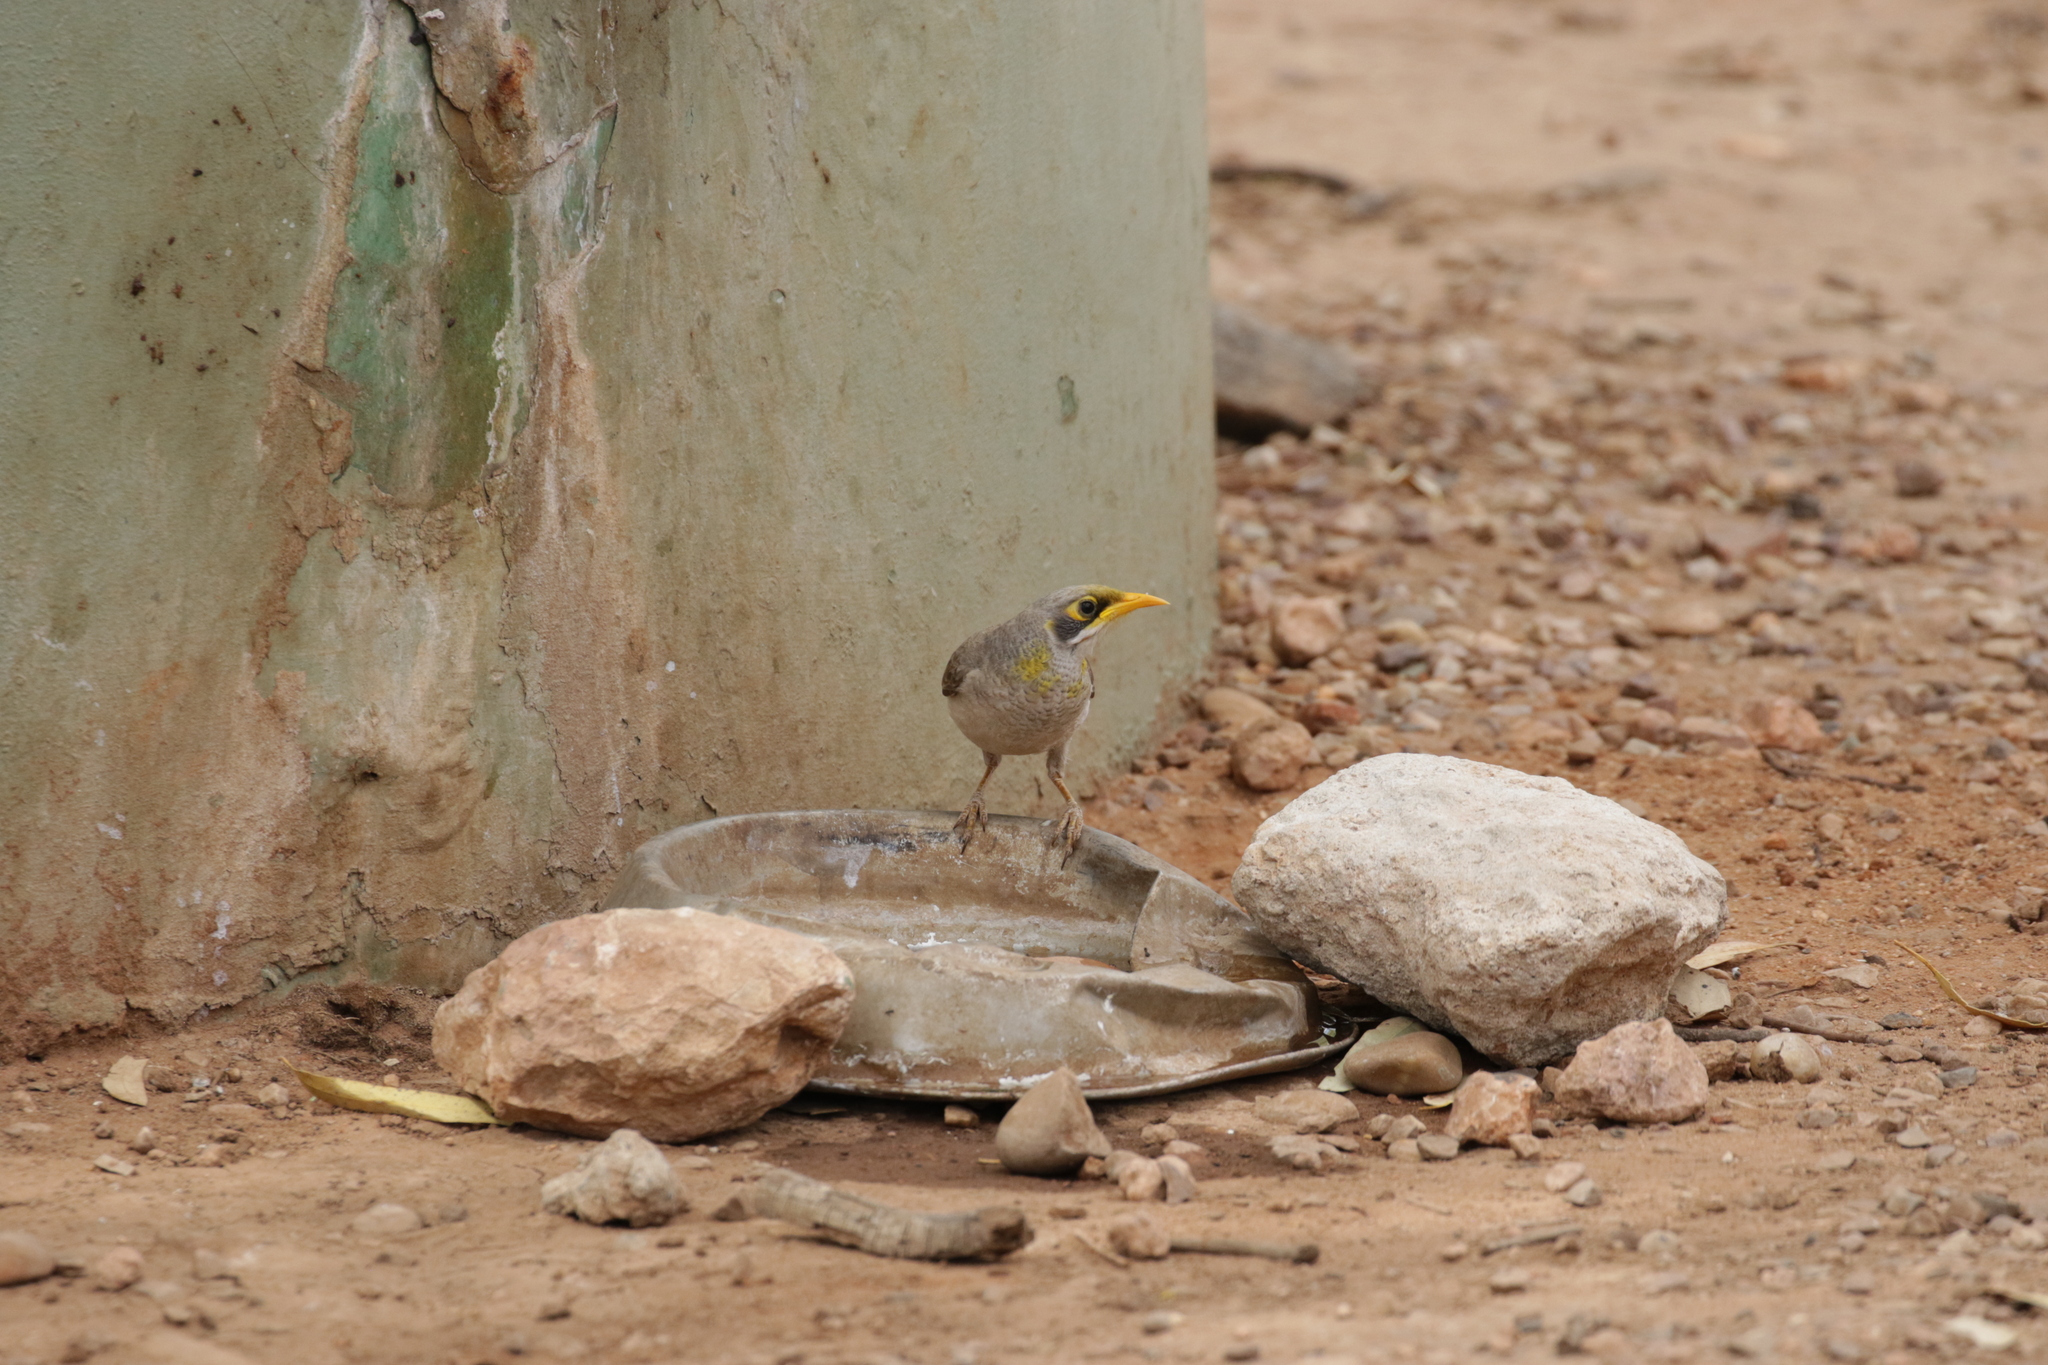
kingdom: Animalia
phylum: Chordata
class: Aves
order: Passeriformes
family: Meliphagidae
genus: Manorina
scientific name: Manorina flavigula
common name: Yellow-throated miner
